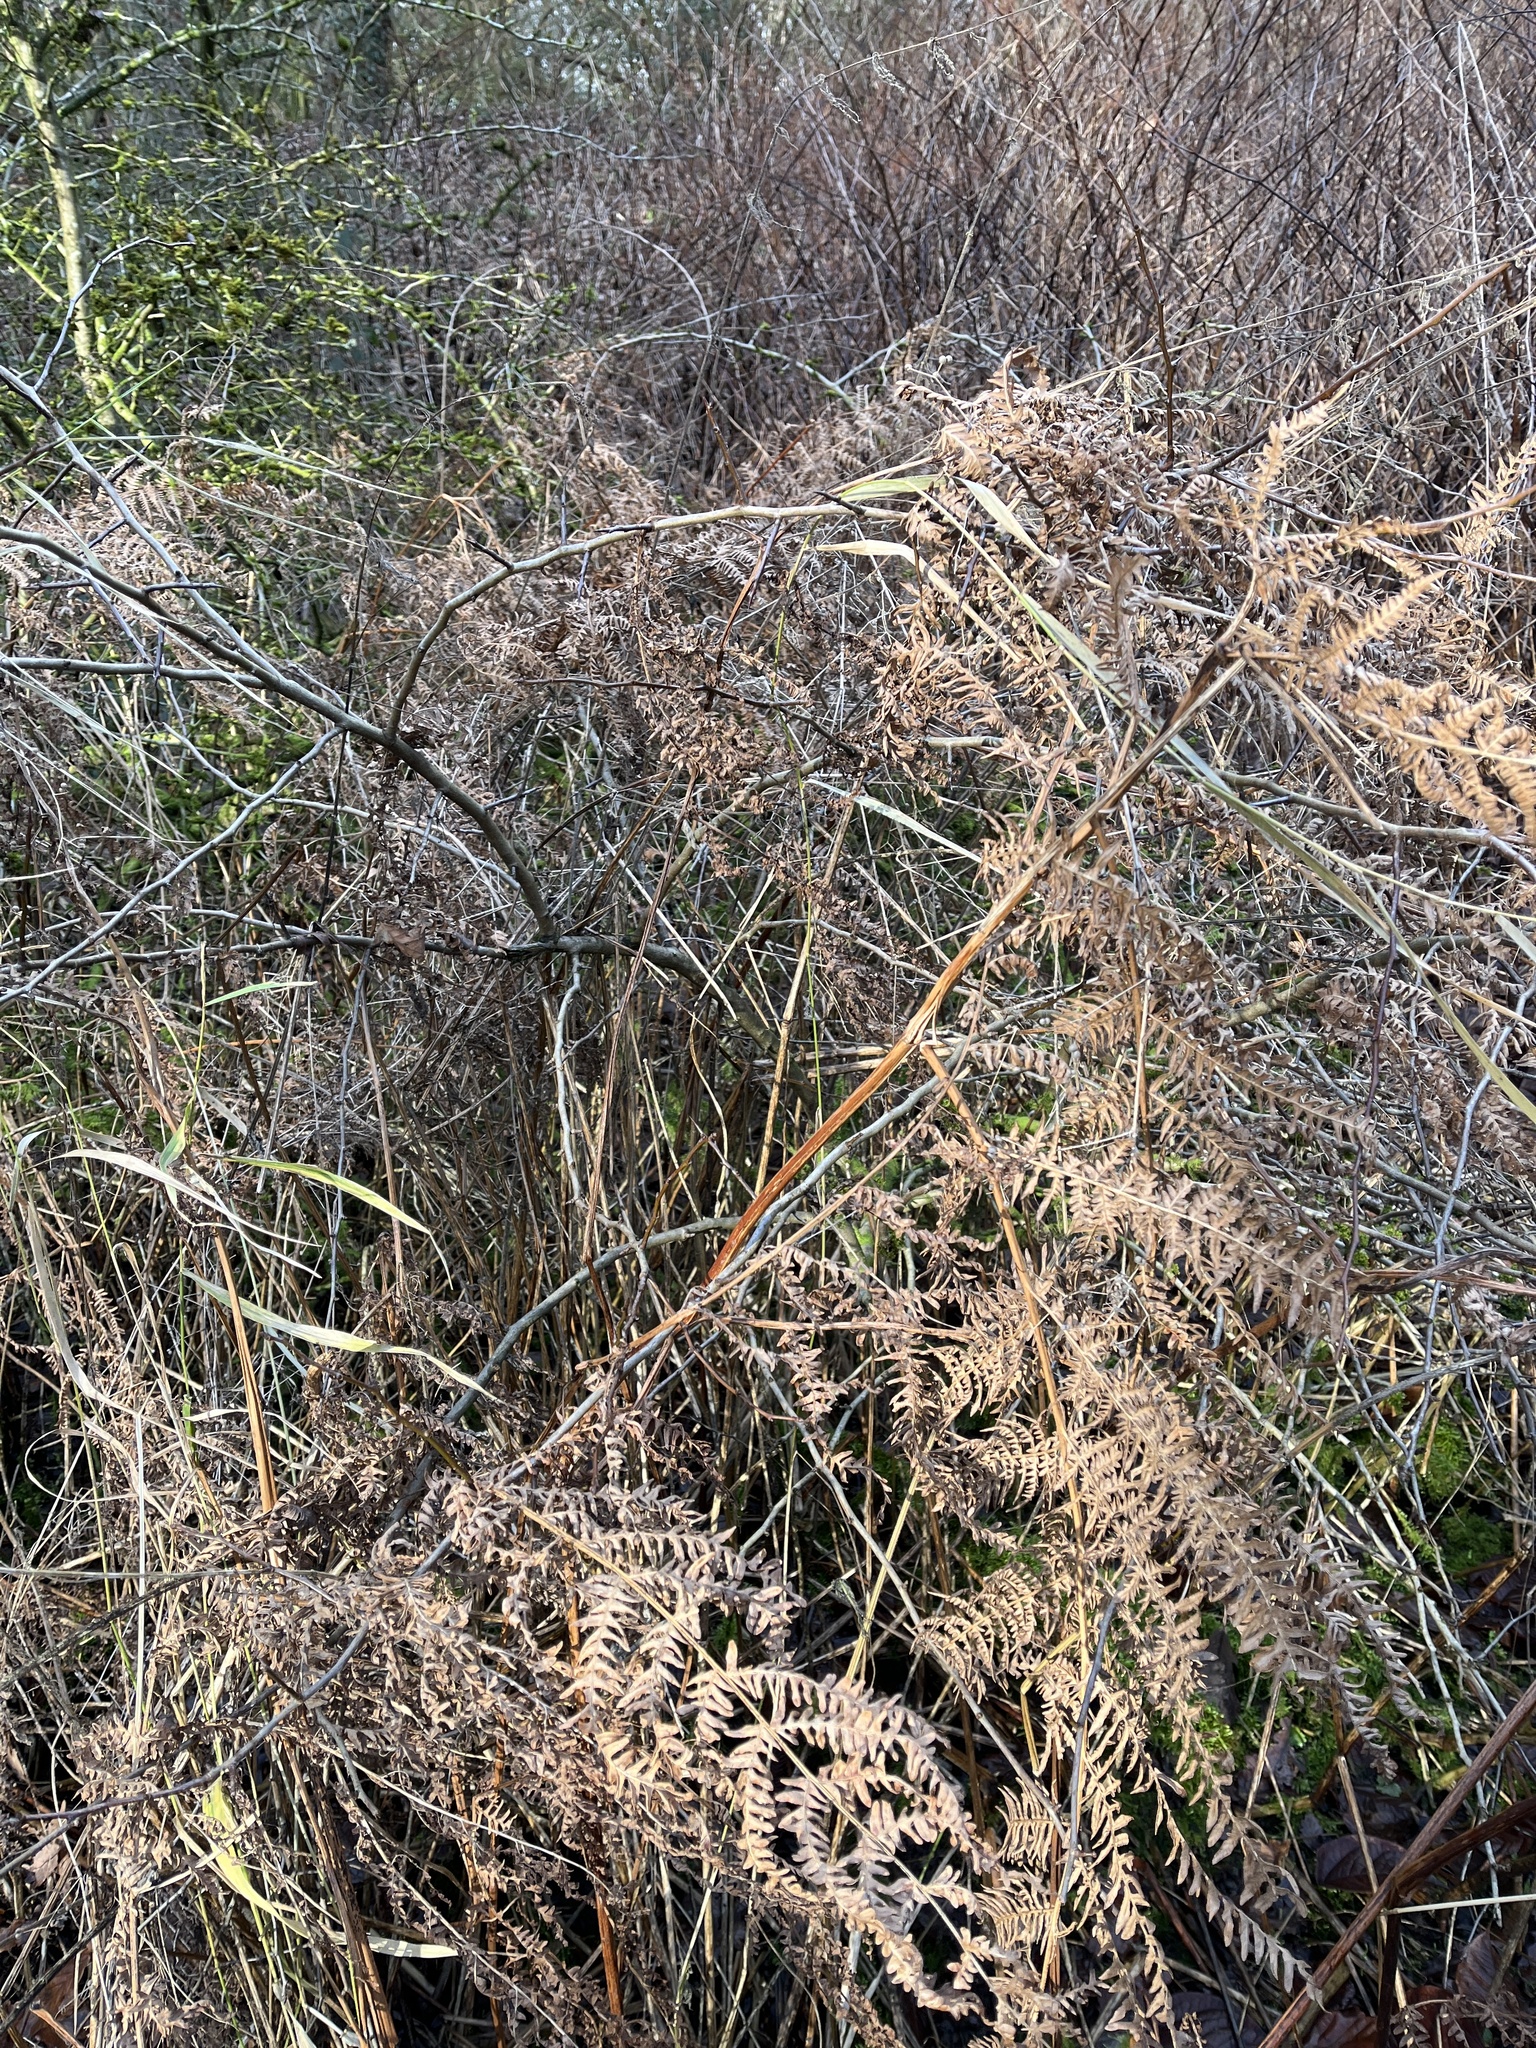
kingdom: Plantae
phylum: Tracheophyta
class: Polypodiopsida
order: Polypodiales
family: Dennstaedtiaceae
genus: Pteridium
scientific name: Pteridium aquilinum
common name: Bracken
